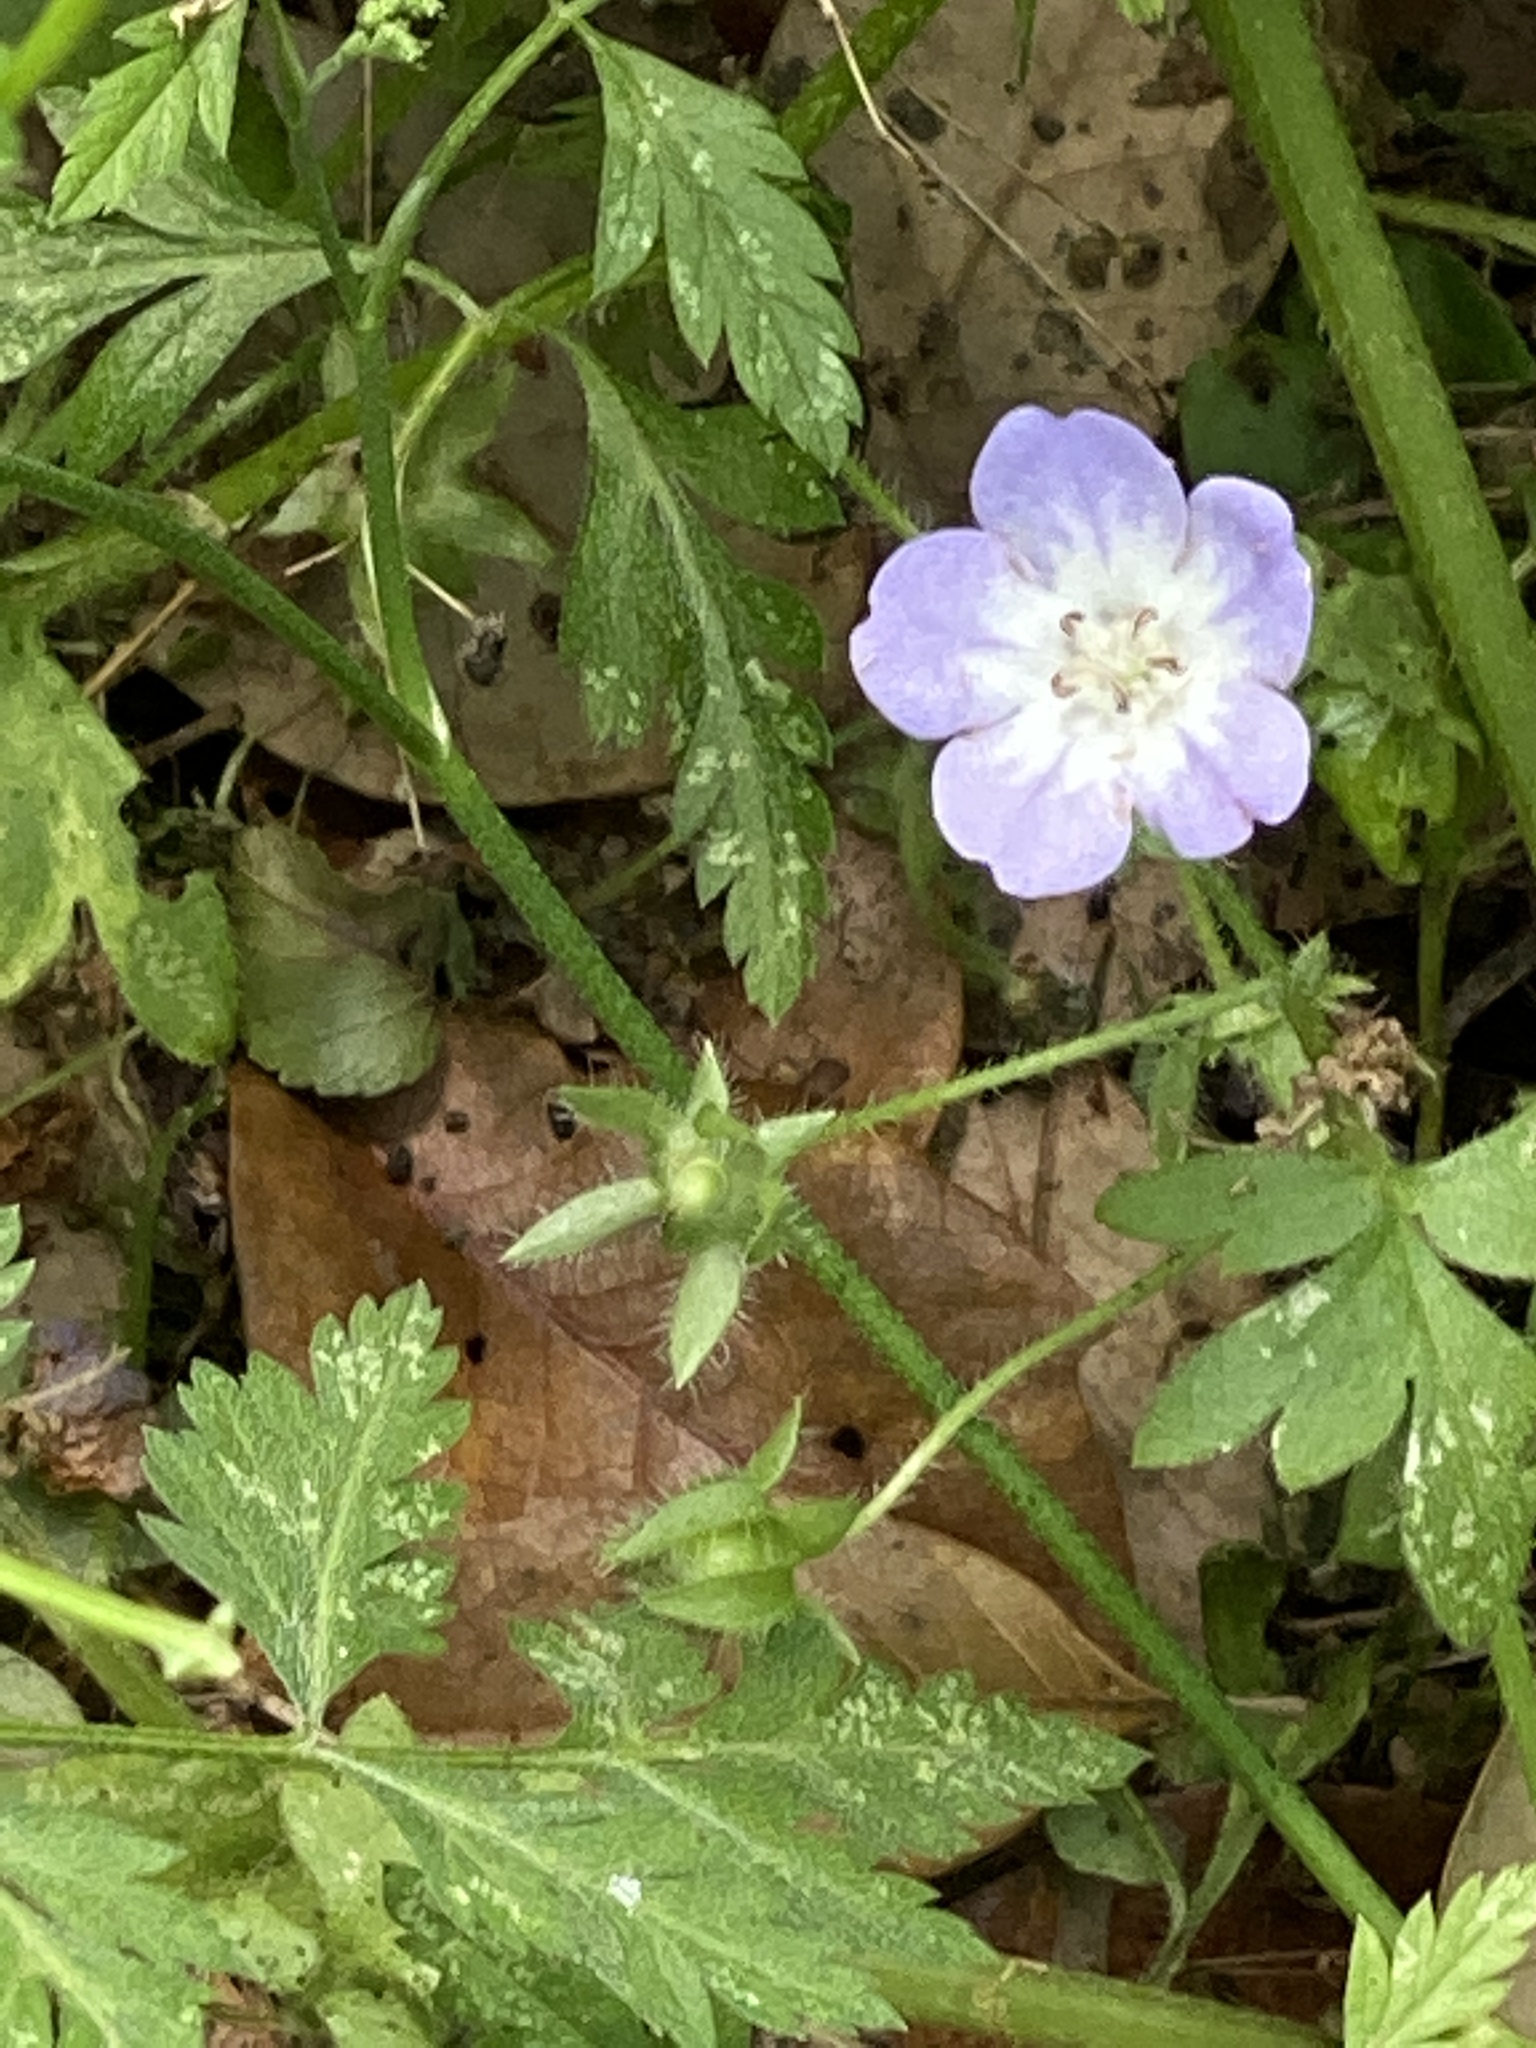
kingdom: Plantae
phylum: Tracheophyta
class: Magnoliopsida
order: Boraginales
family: Hydrophyllaceae
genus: Nemophila
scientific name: Nemophila phacelioides
